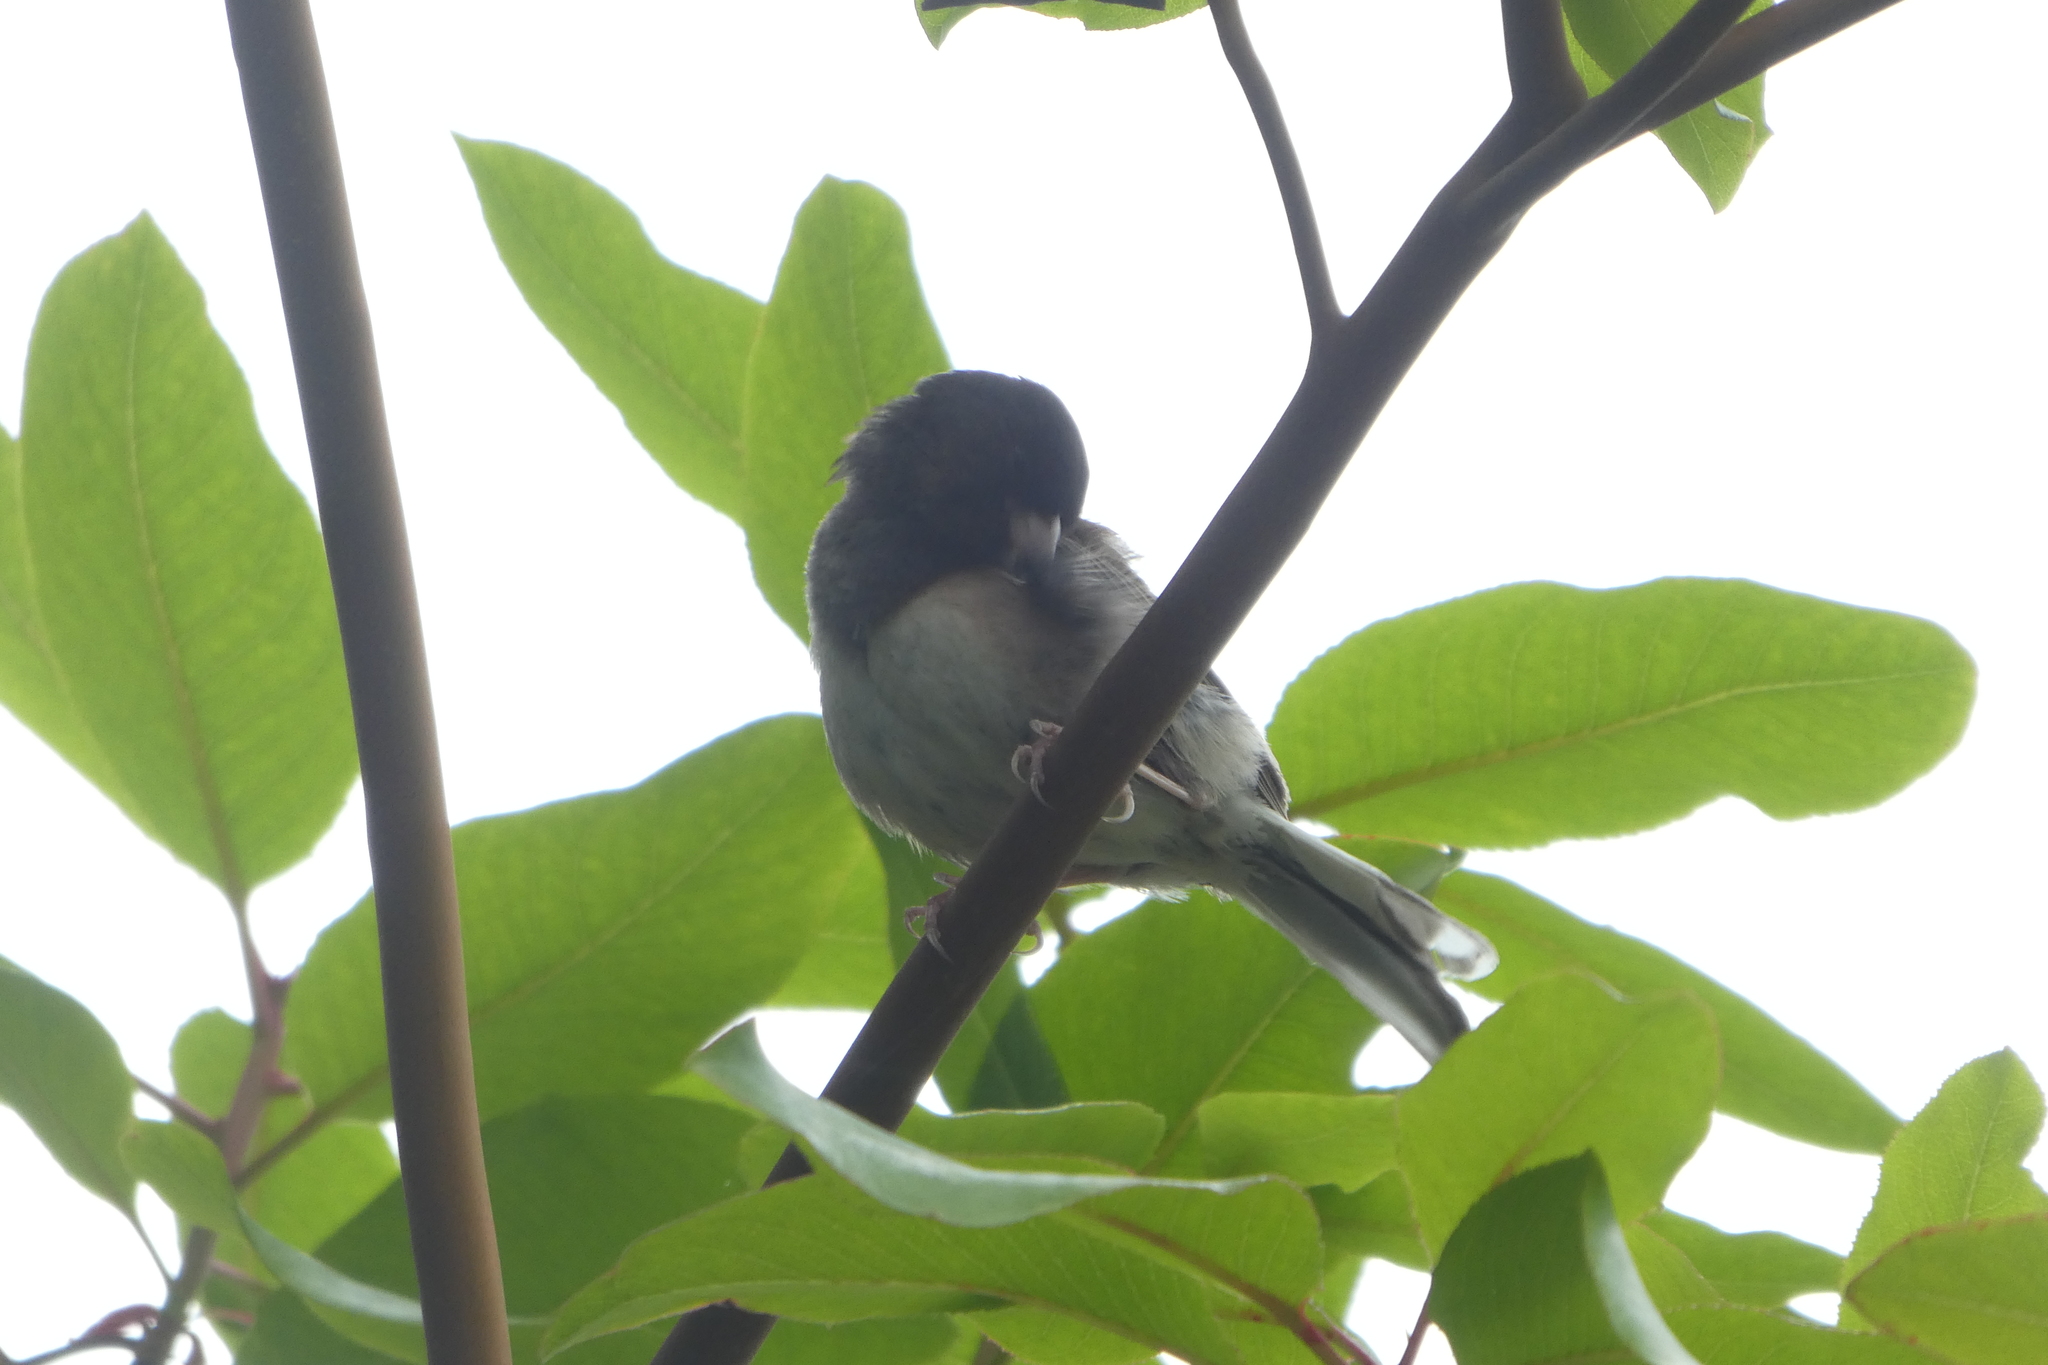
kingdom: Animalia
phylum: Chordata
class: Aves
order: Passeriformes
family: Passerellidae
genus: Junco
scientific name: Junco hyemalis
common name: Dark-eyed junco
